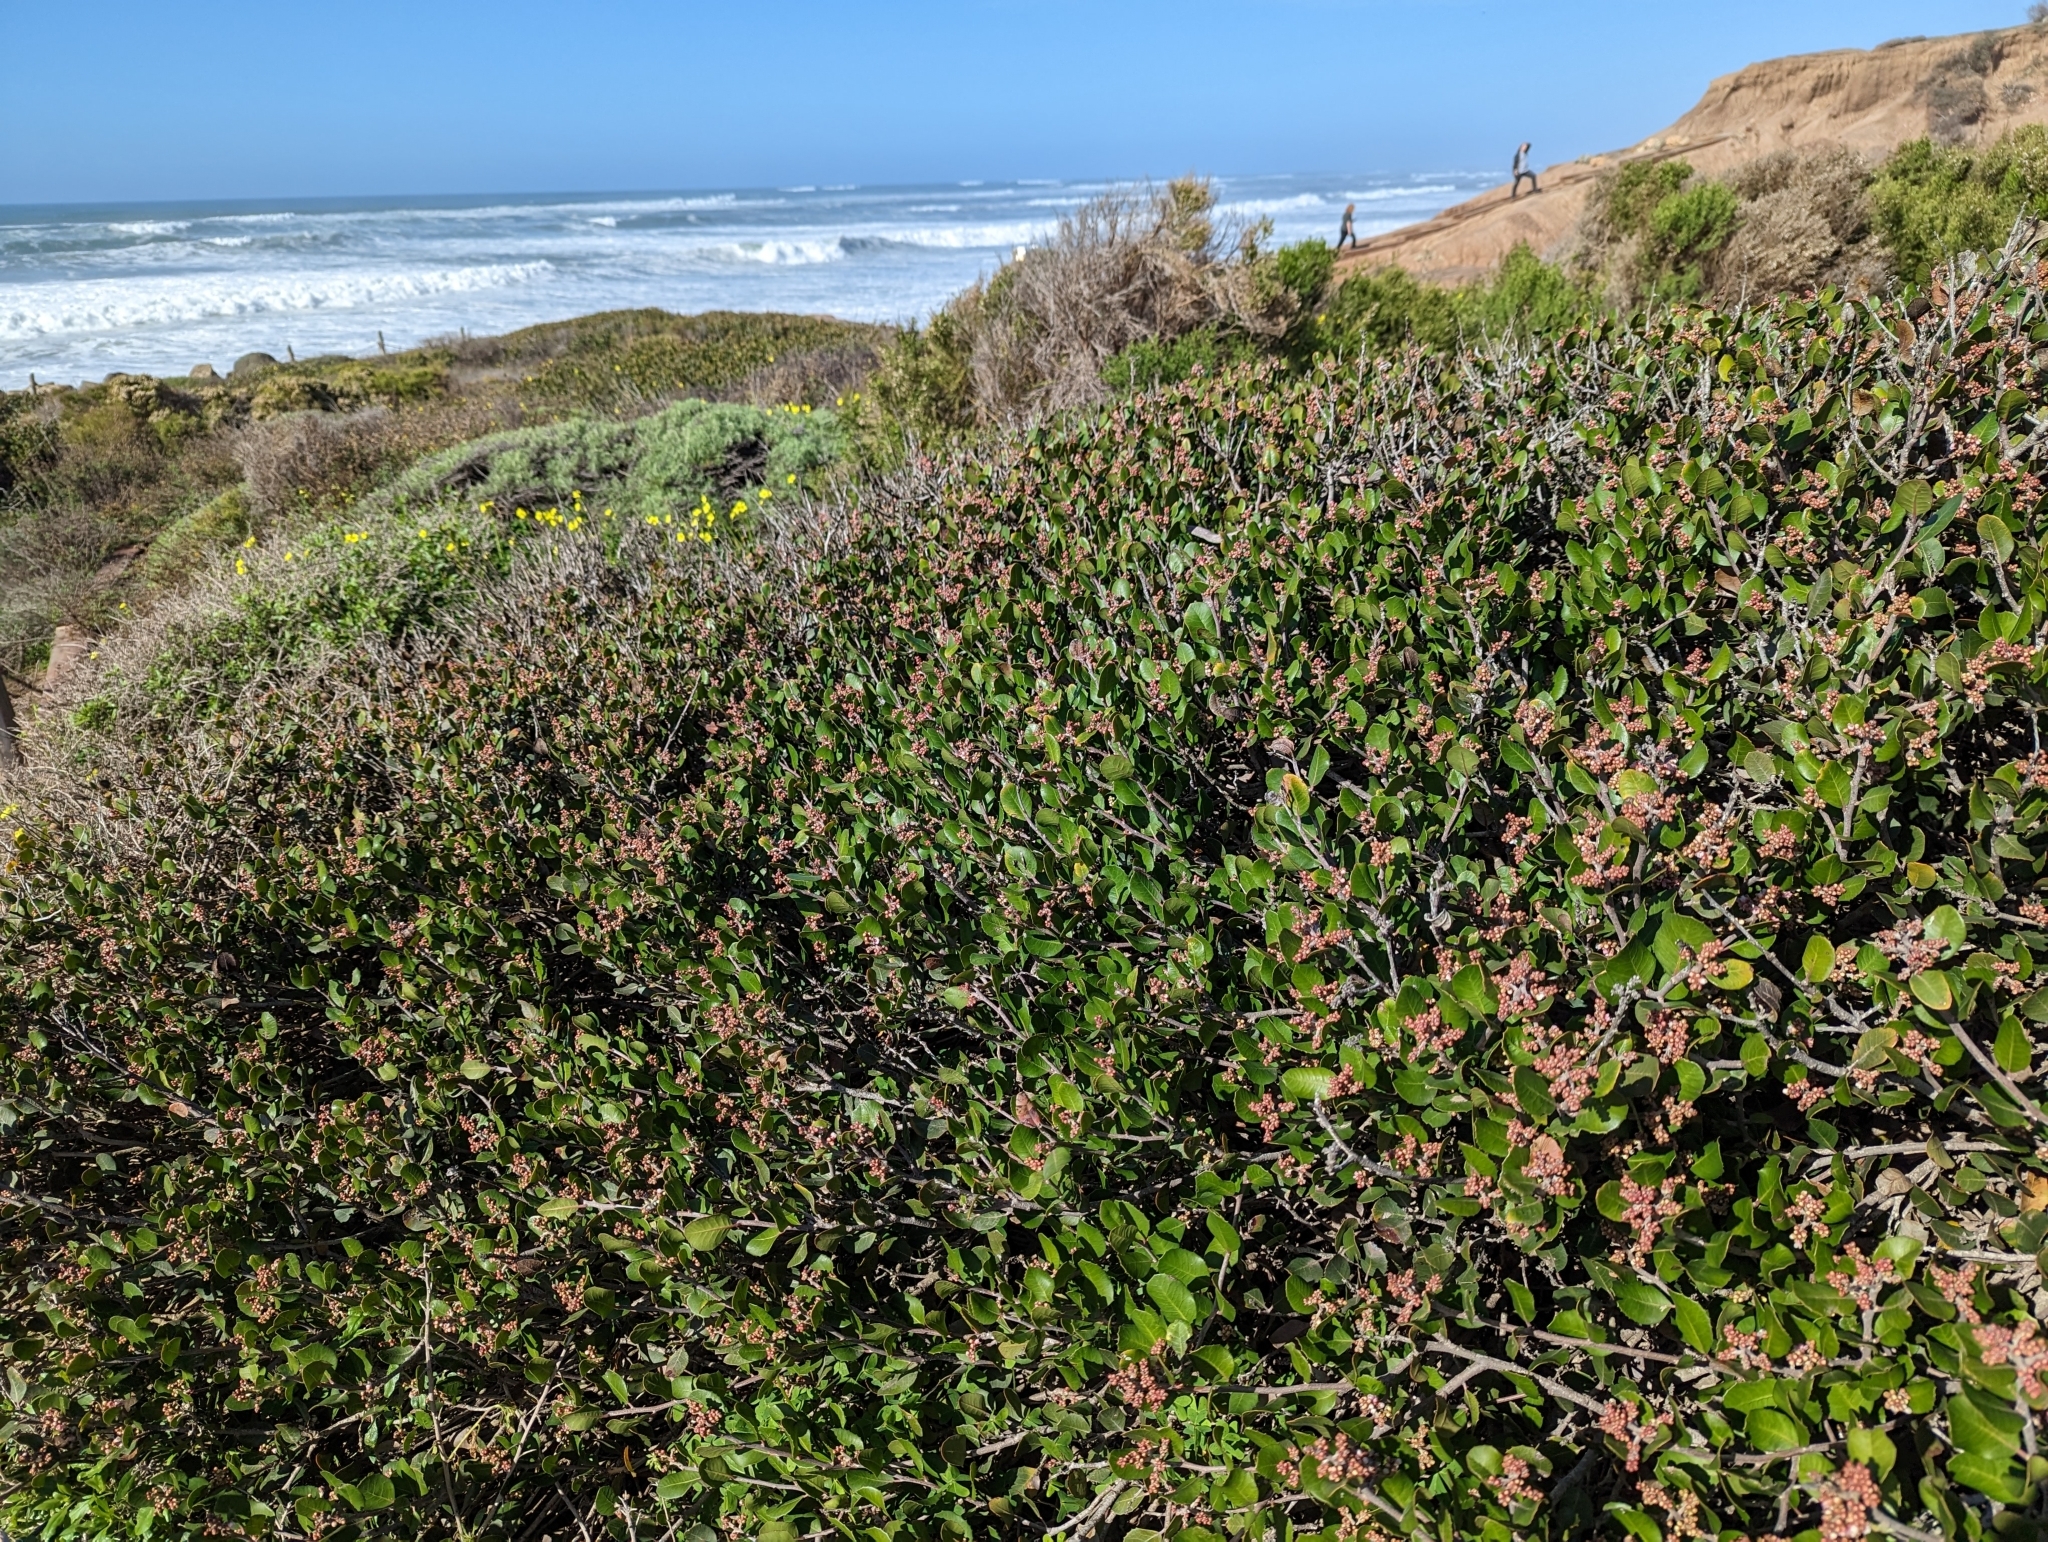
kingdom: Plantae
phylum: Tracheophyta
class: Magnoliopsida
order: Sapindales
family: Anacardiaceae
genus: Rhus
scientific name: Rhus integrifolia
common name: Lemonade sumac
